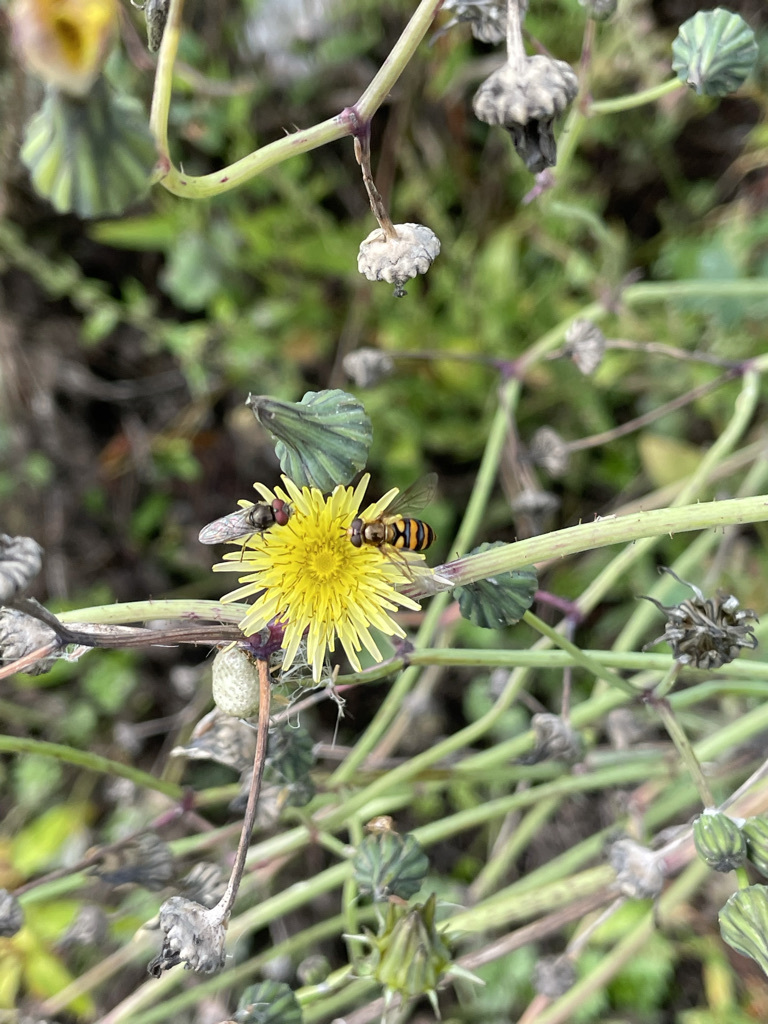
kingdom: Animalia
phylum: Arthropoda
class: Insecta
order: Diptera
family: Syrphidae
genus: Eupeodes
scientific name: Eupeodes fumipennis
